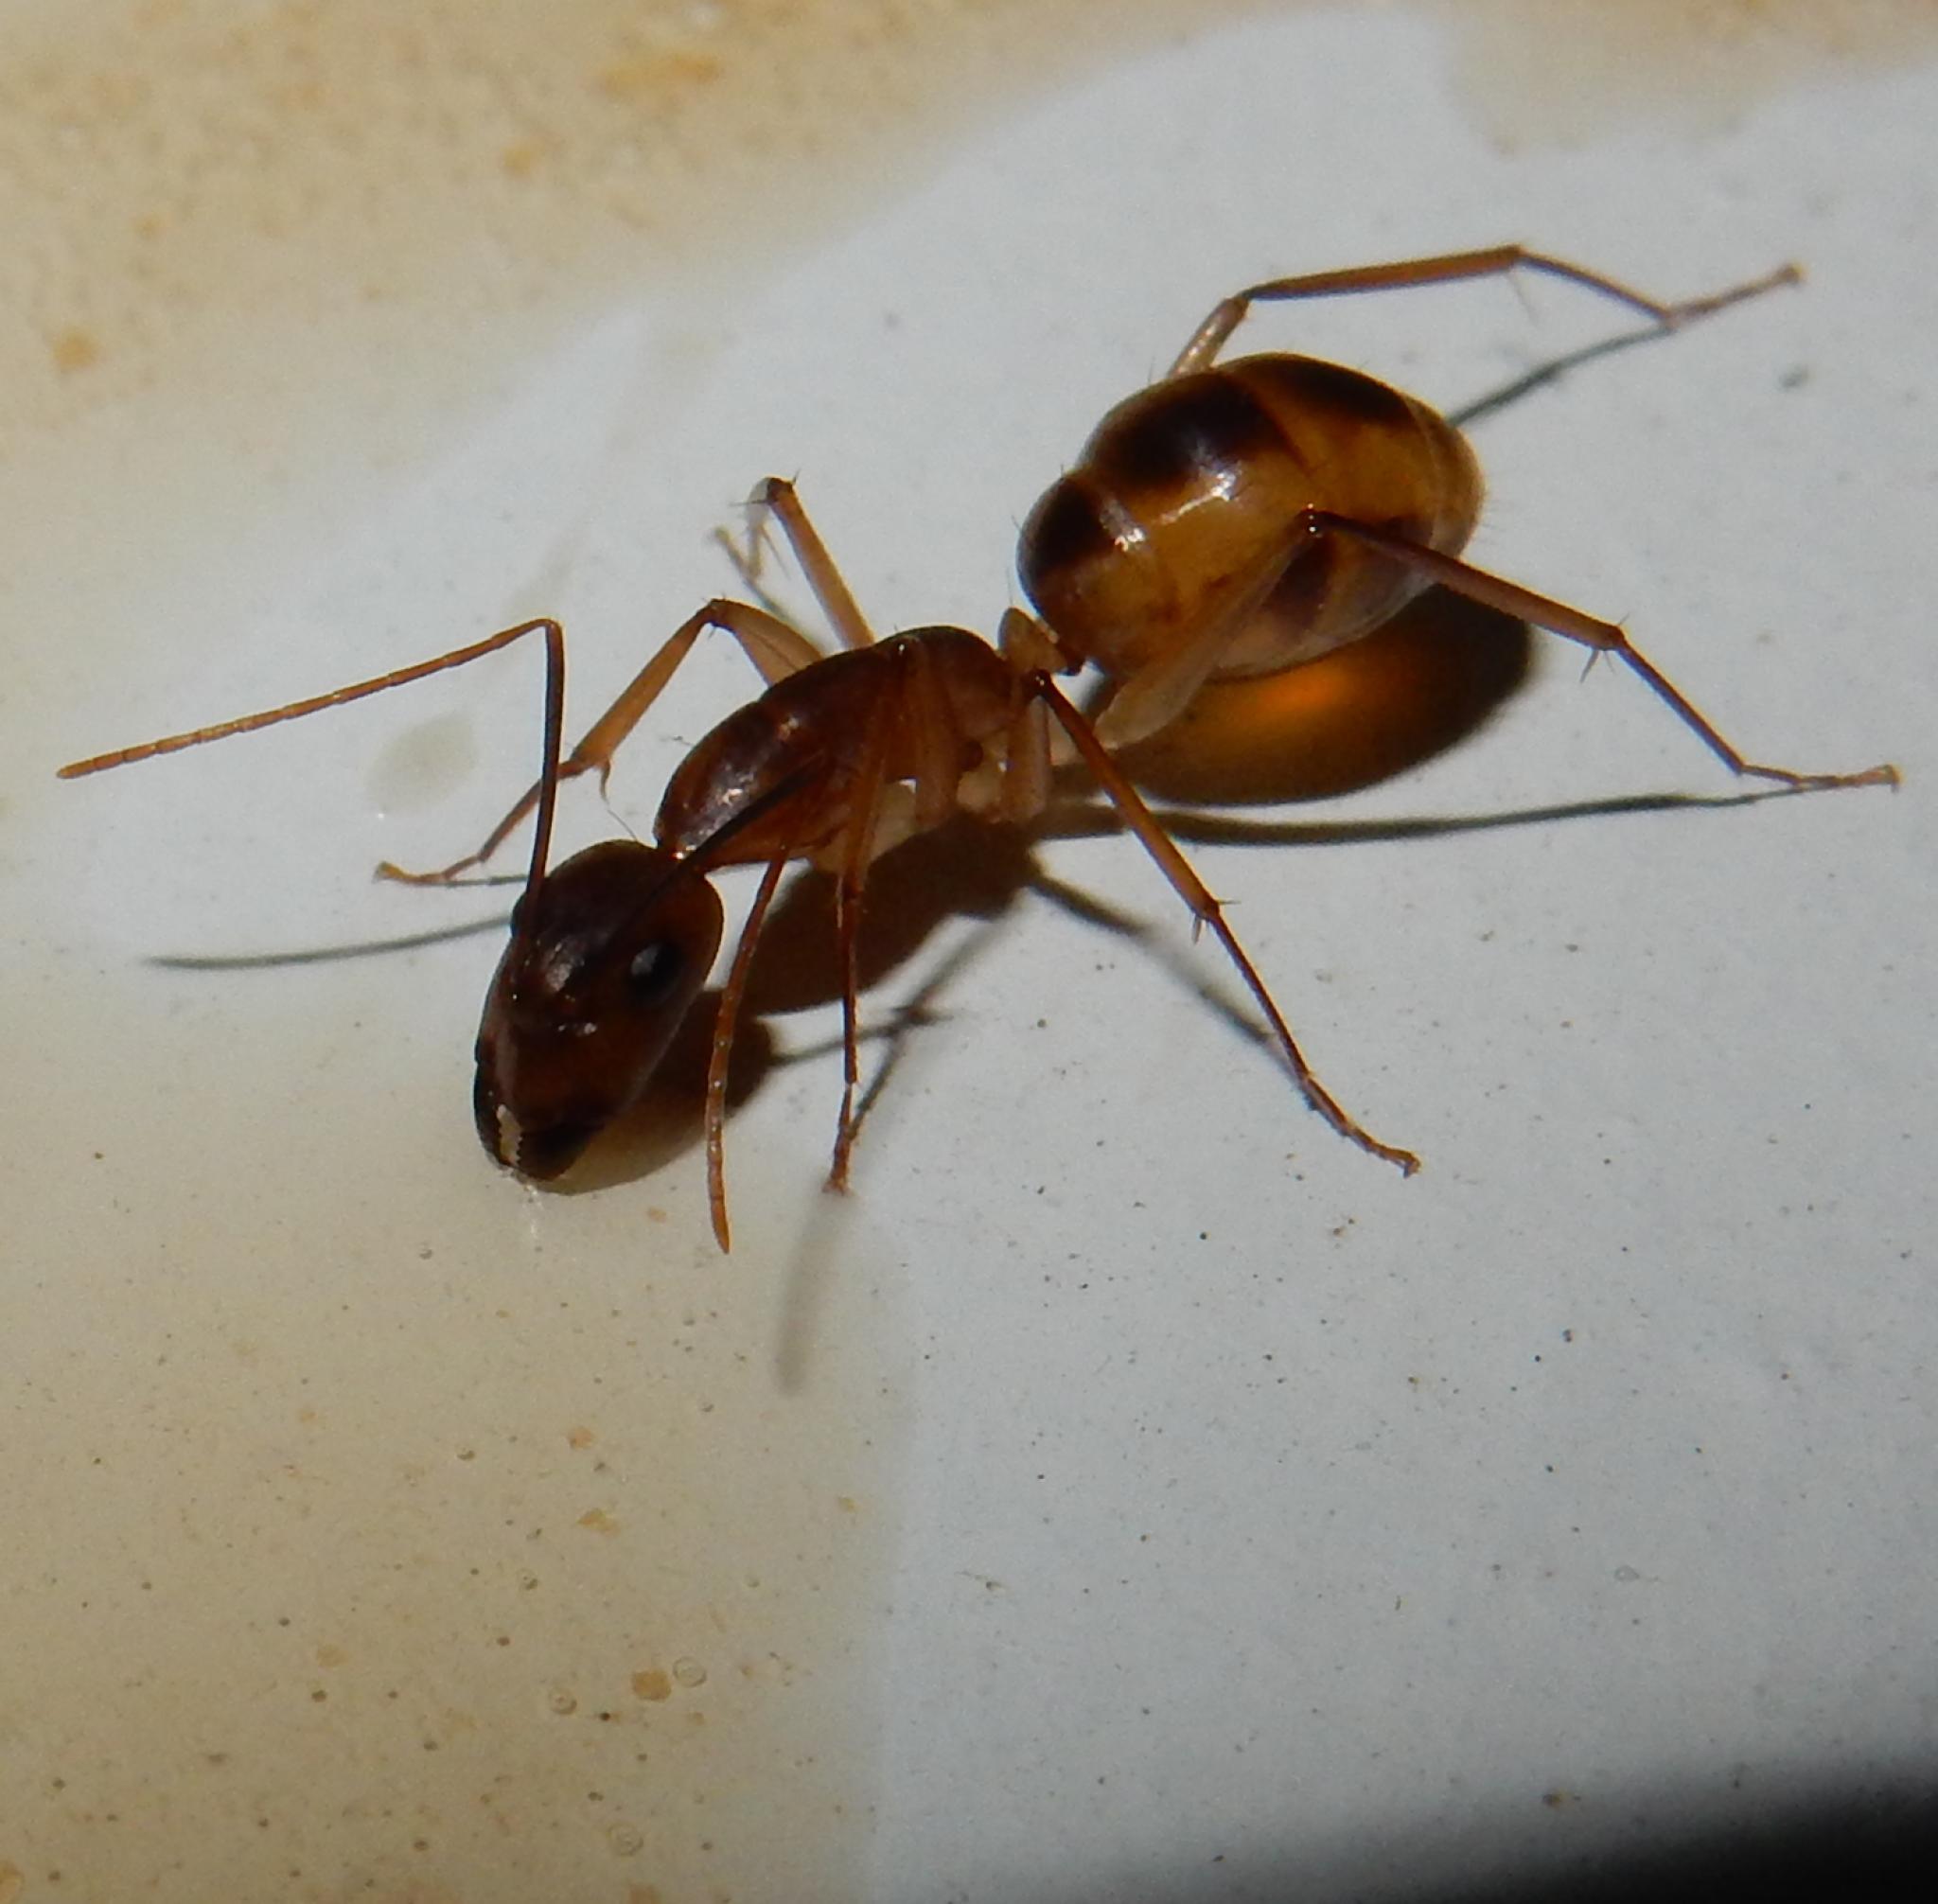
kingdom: Animalia
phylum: Arthropoda
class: Insecta
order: Hymenoptera
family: Formicidae
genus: Camponotus
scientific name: Camponotus maculatus
